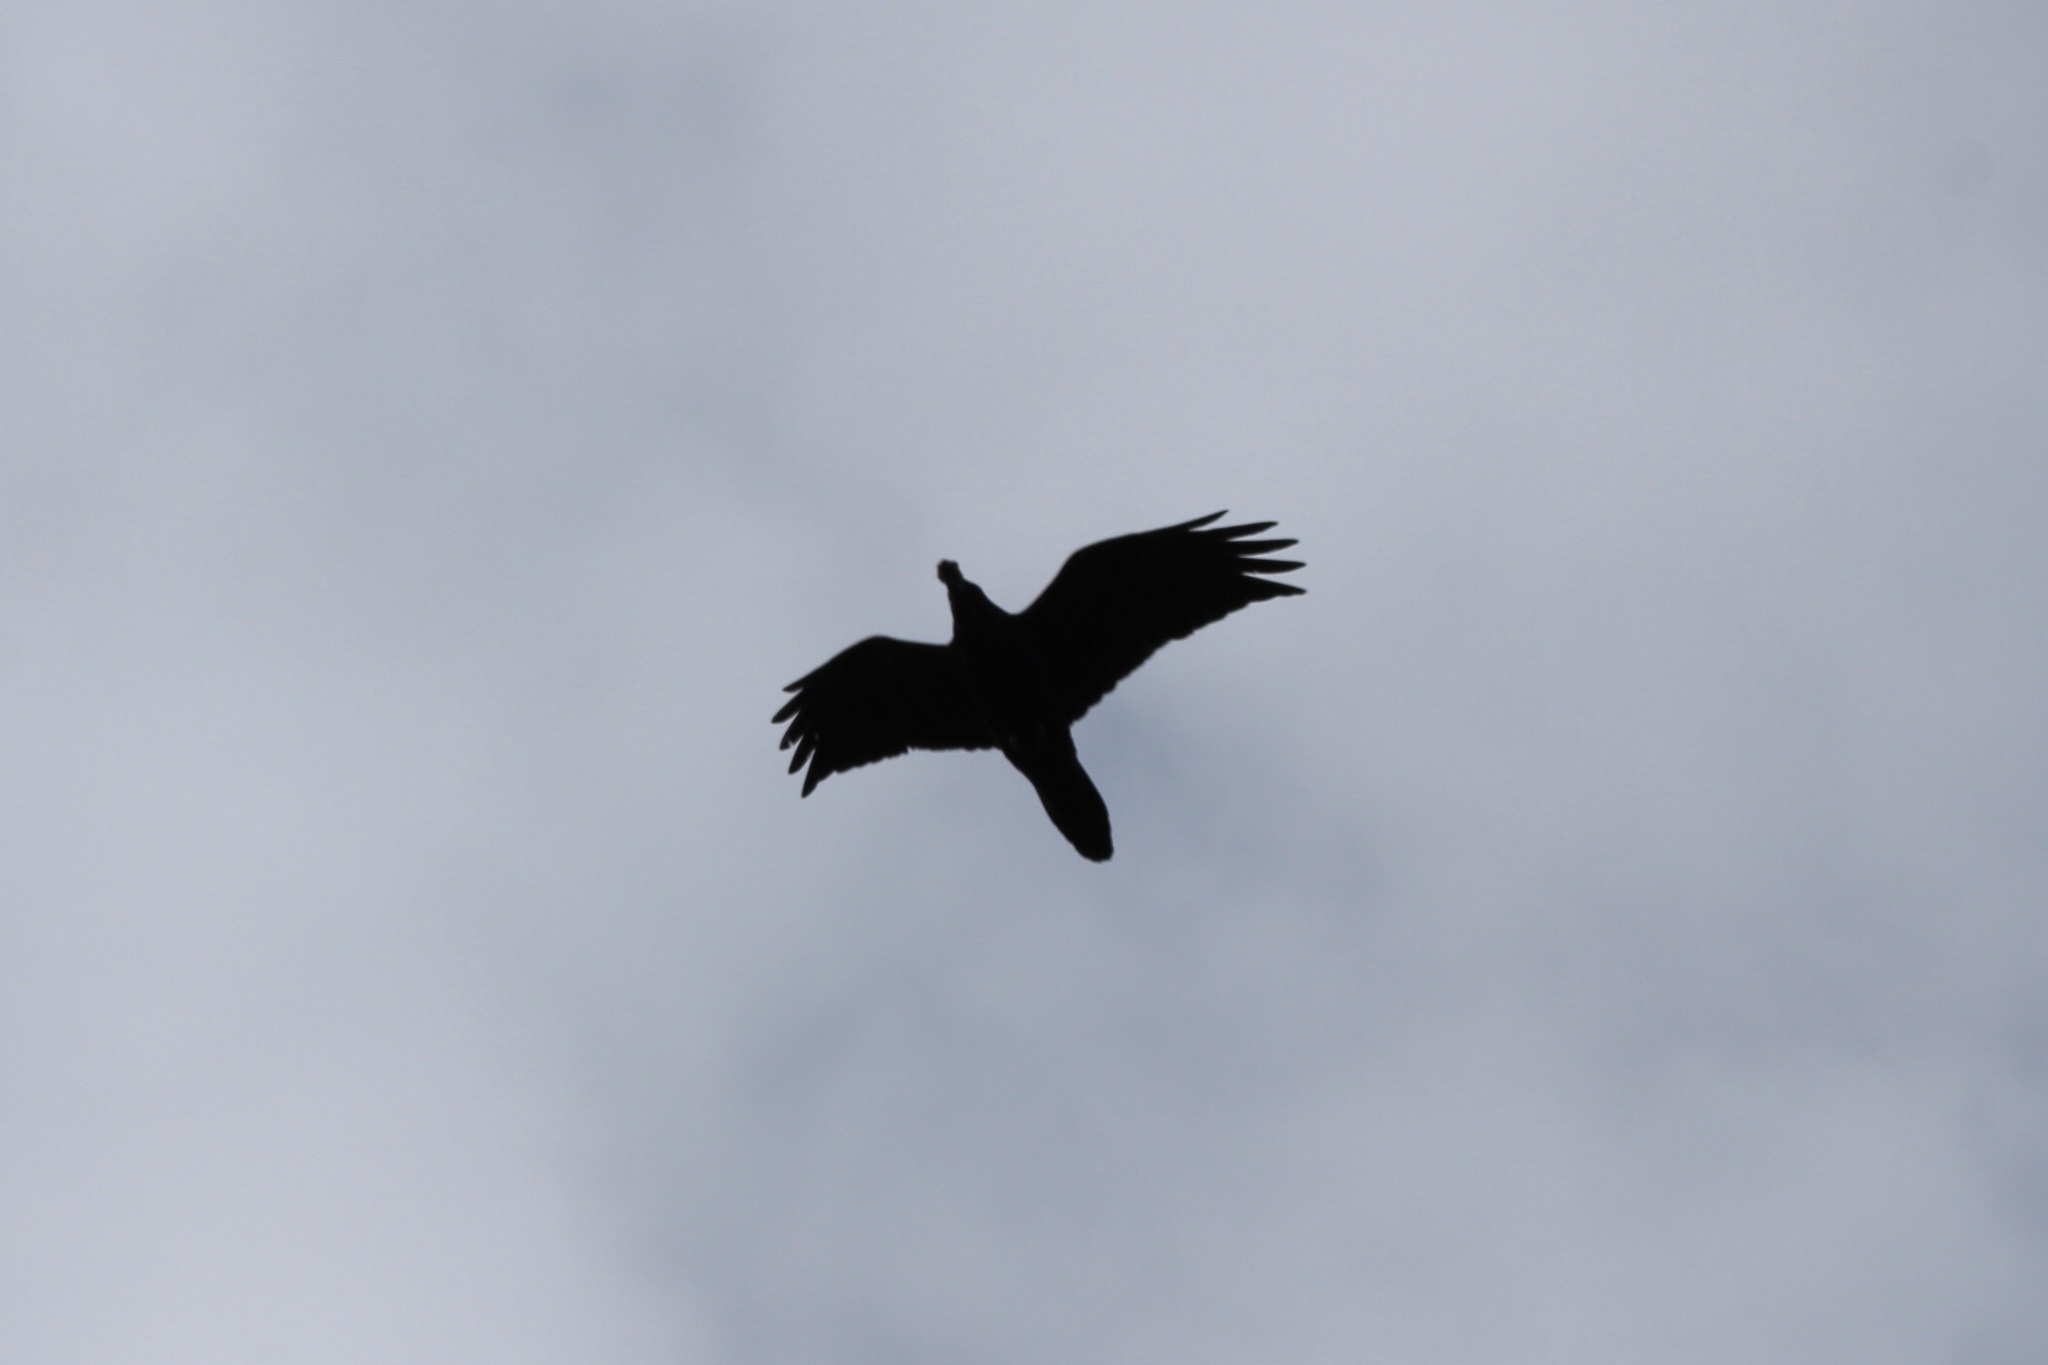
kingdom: Animalia
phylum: Chordata
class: Aves
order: Passeriformes
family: Corvidae
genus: Corvus
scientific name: Corvus corax
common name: Common raven
